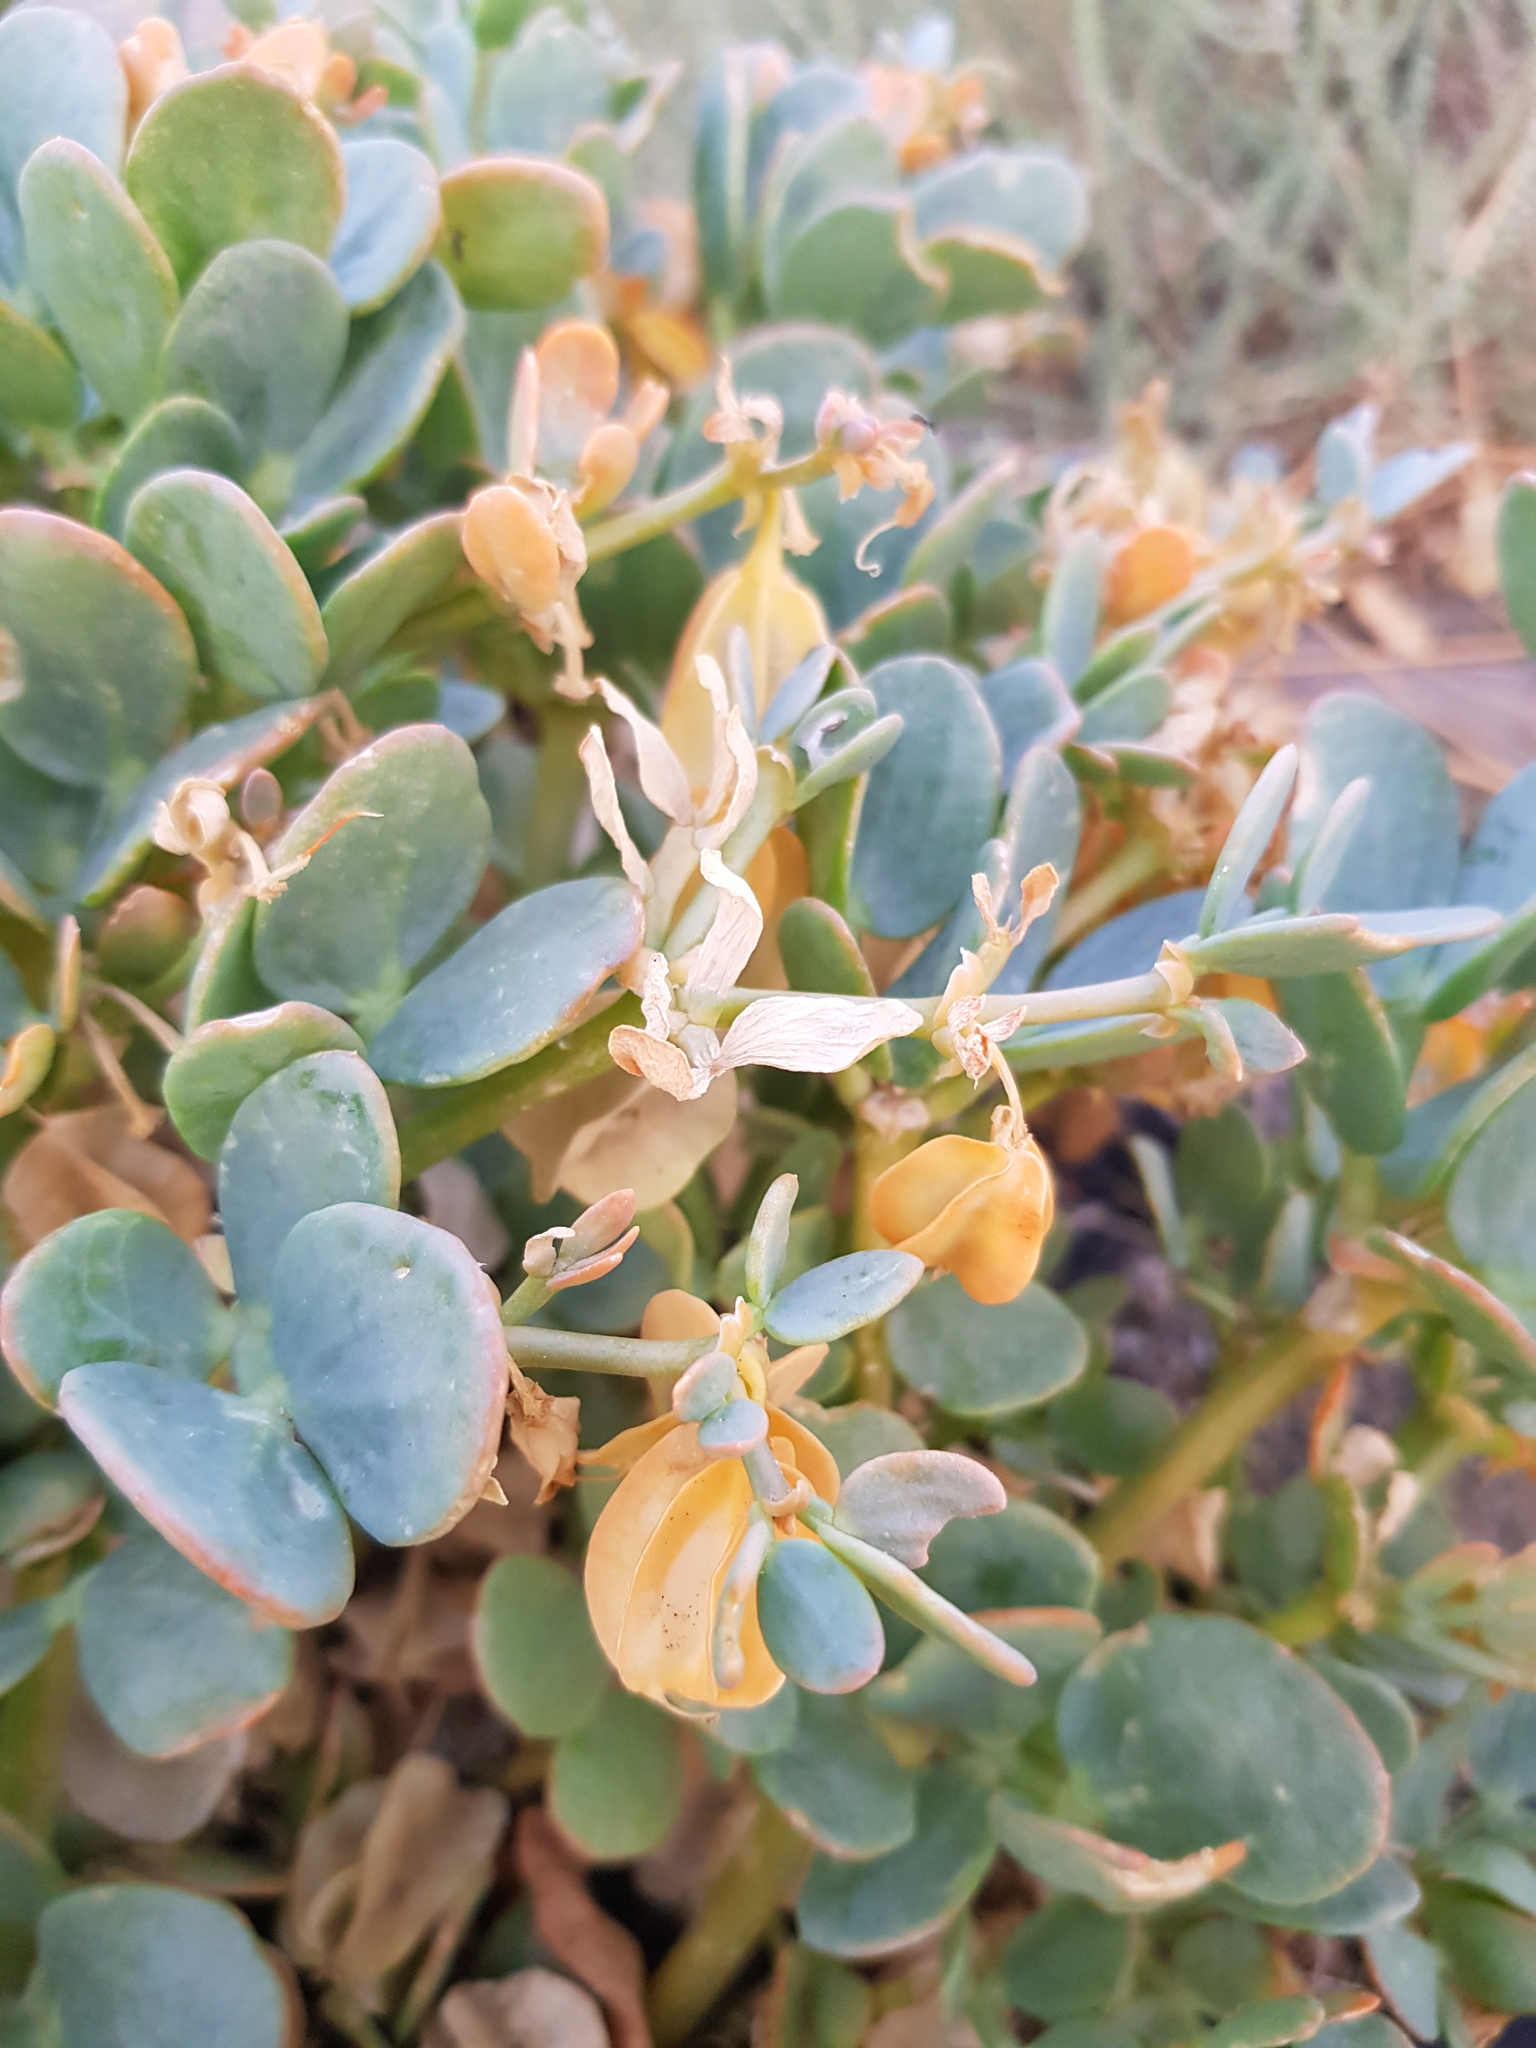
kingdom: Plantae
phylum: Tracheophyta
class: Magnoliopsida
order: Zygophyllales
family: Zygophyllaceae
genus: Zygophyllum
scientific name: Zygophyllum potaninii
